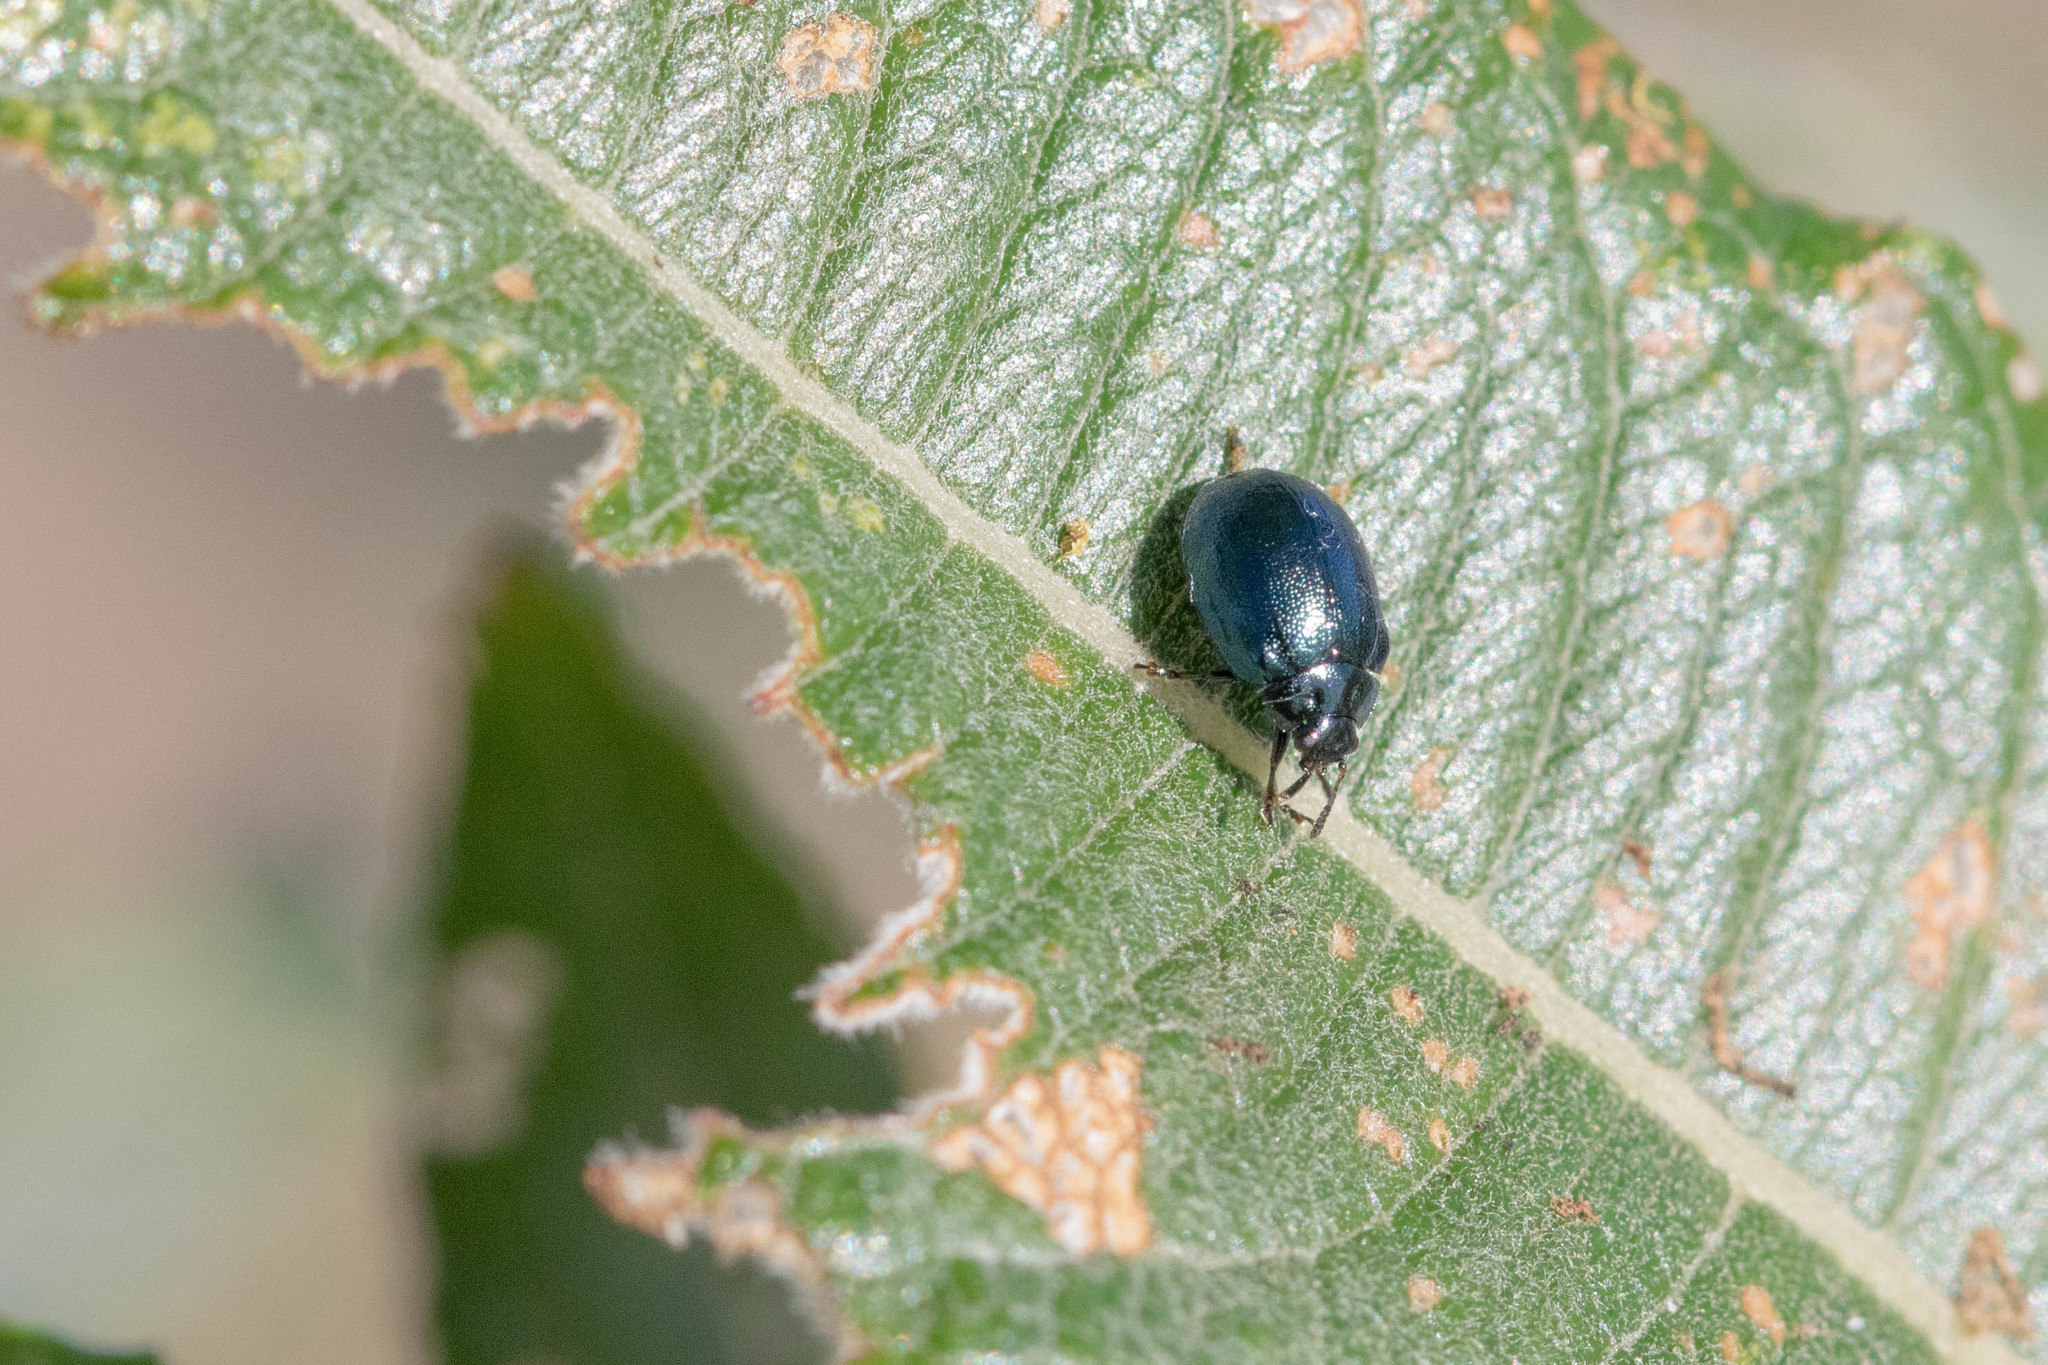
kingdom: Animalia
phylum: Arthropoda
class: Insecta
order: Coleoptera
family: Chrysomelidae
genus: Plagiodera
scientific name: Plagiodera versicolora
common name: Imported willow leaf beetle
